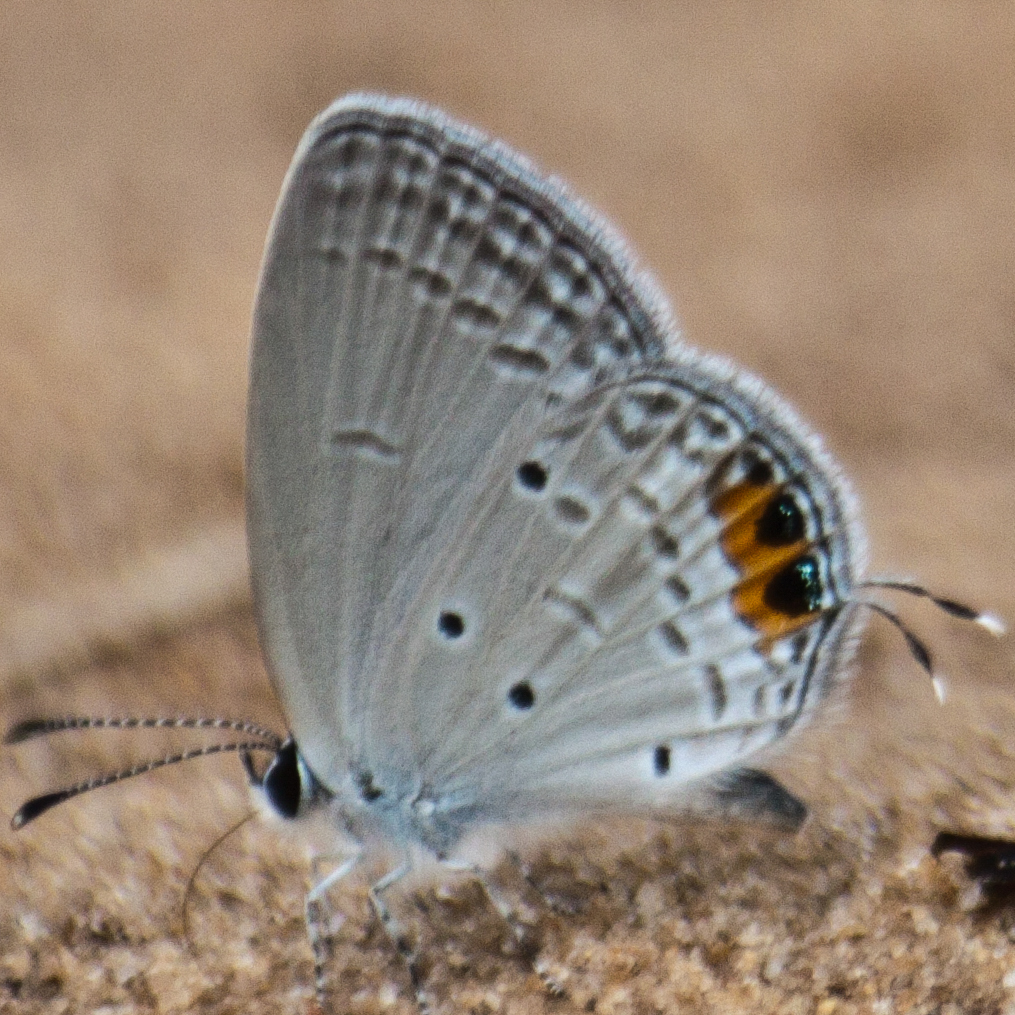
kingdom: Animalia
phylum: Arthropoda
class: Insecta
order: Lepidoptera
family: Lycaenidae
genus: Everes
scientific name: Everes lacturnus
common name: Orange-tipped pea-blue
